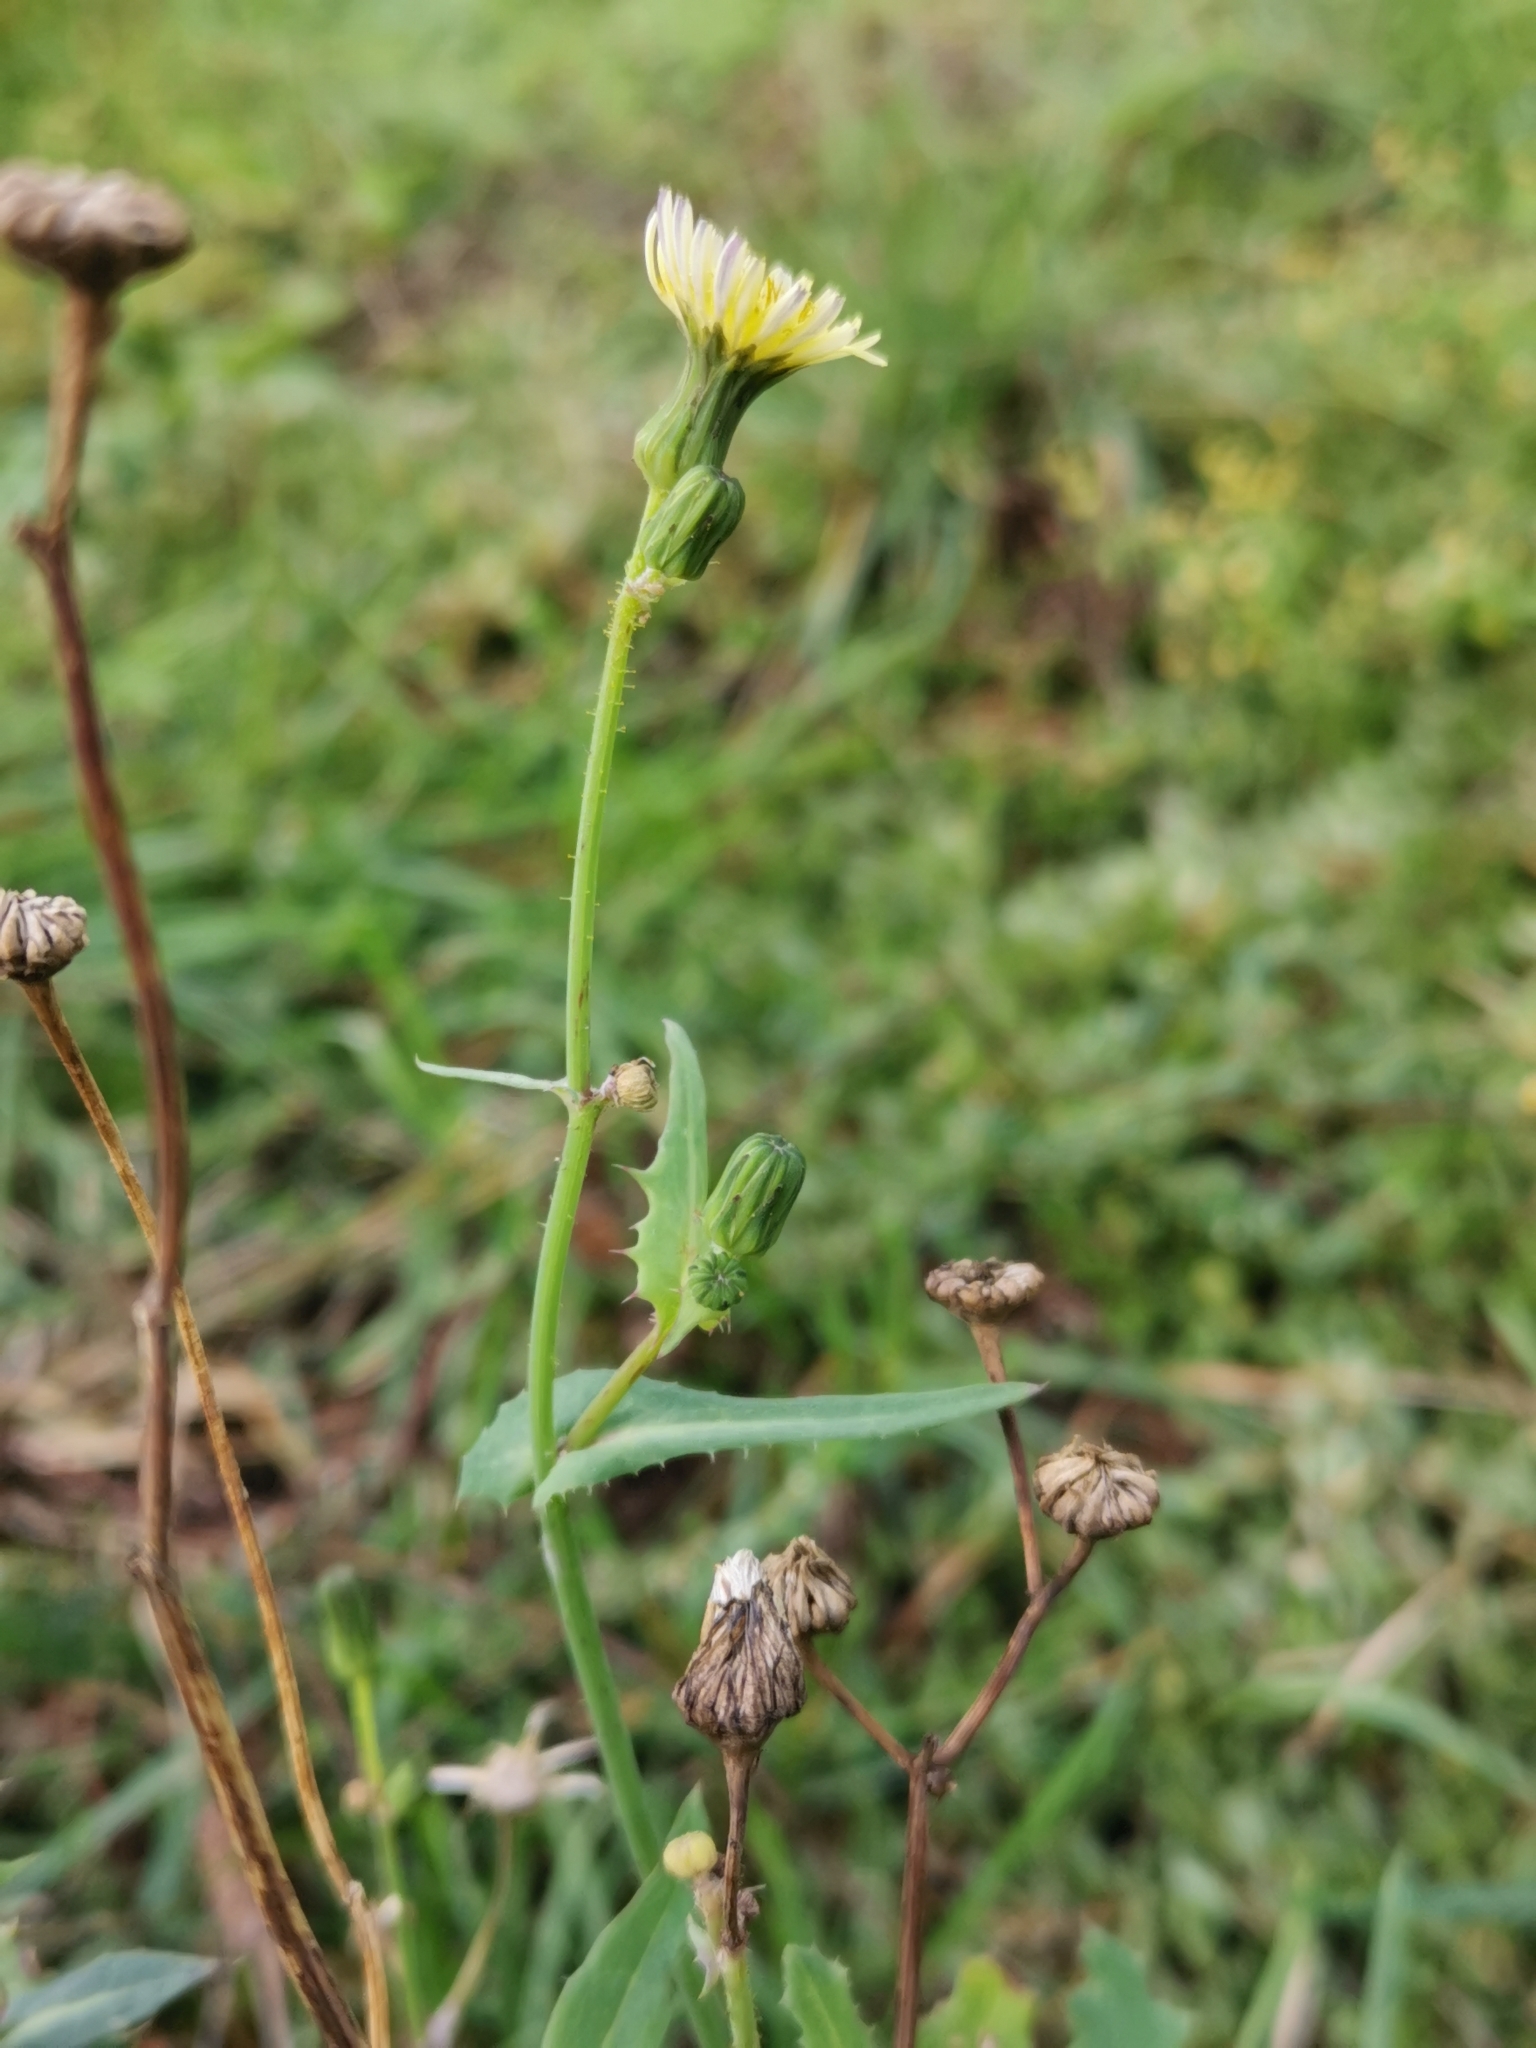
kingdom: Plantae
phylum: Tracheophyta
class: Magnoliopsida
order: Asterales
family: Asteraceae
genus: Sonchus
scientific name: Sonchus oleraceus
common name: Common sowthistle
